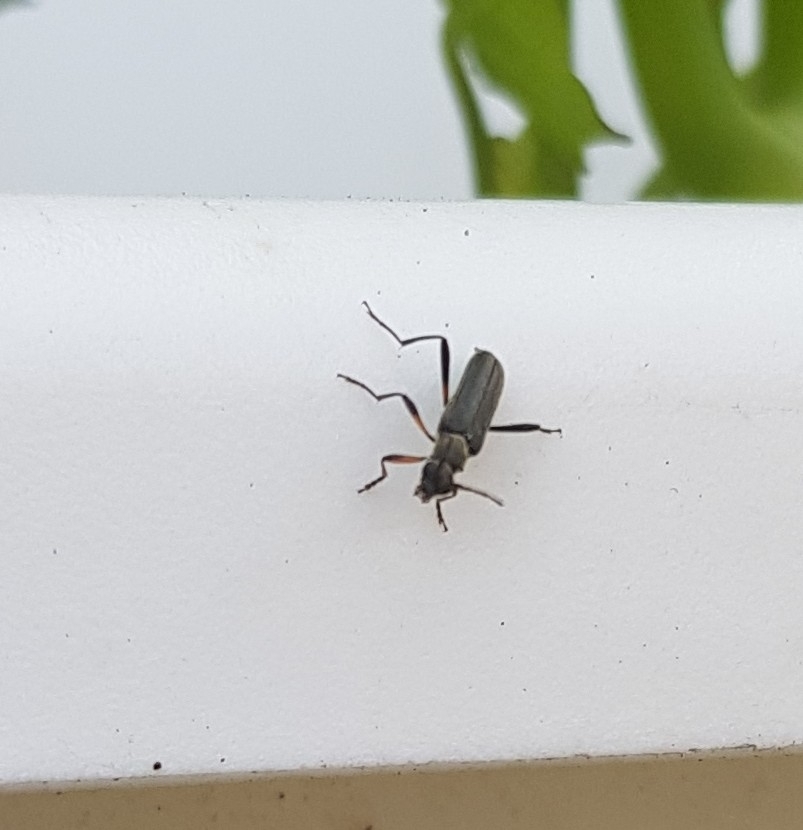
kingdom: Animalia
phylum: Arthropoda
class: Insecta
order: Coleoptera
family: Cerambycidae
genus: Grammoptera
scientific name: Grammoptera ruficornis
